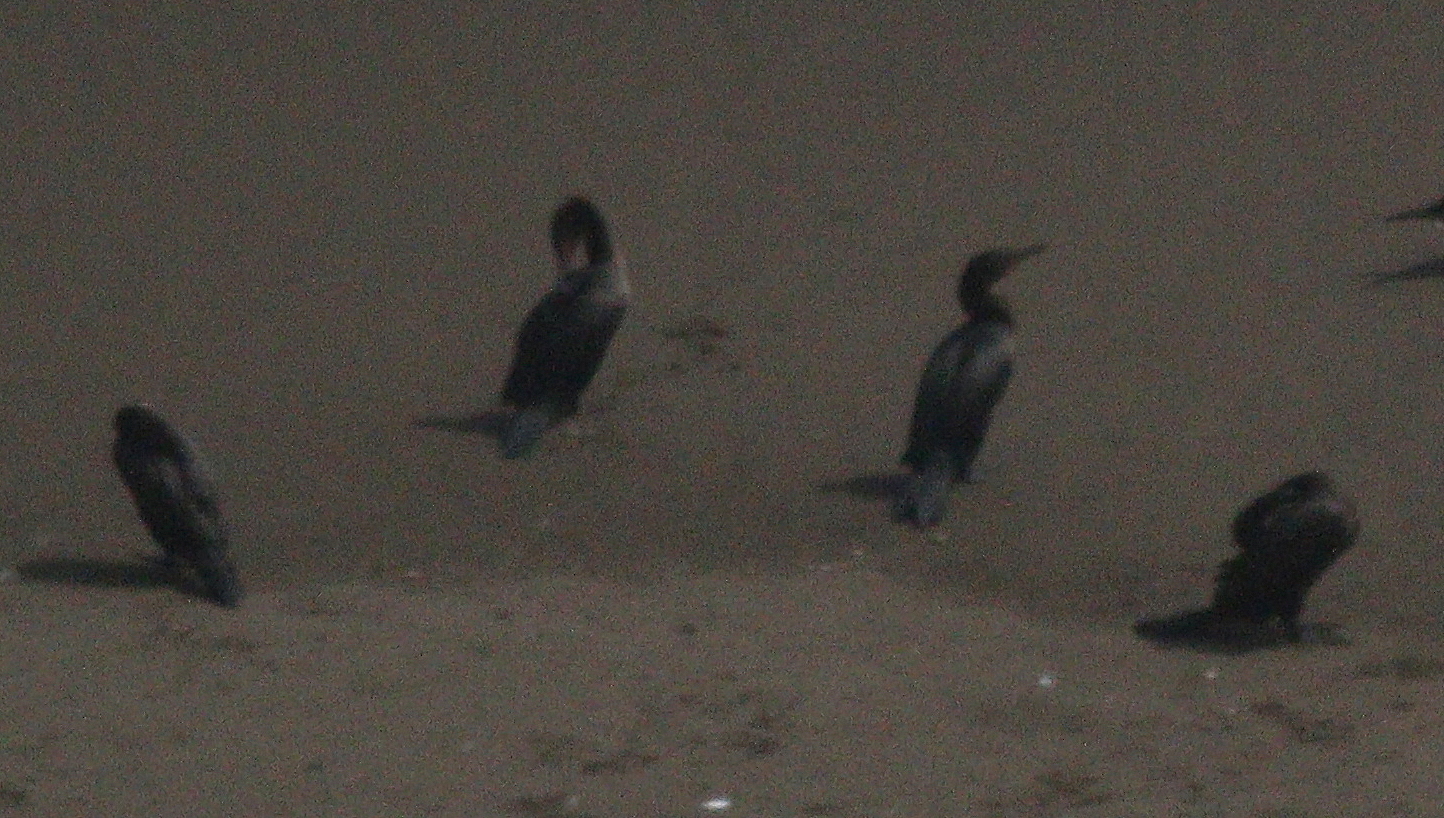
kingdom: Animalia
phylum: Chordata
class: Aves
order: Suliformes
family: Phalacrocoracidae
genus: Phalacrocorax
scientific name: Phalacrocorax brasilianus
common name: Neotropic cormorant
